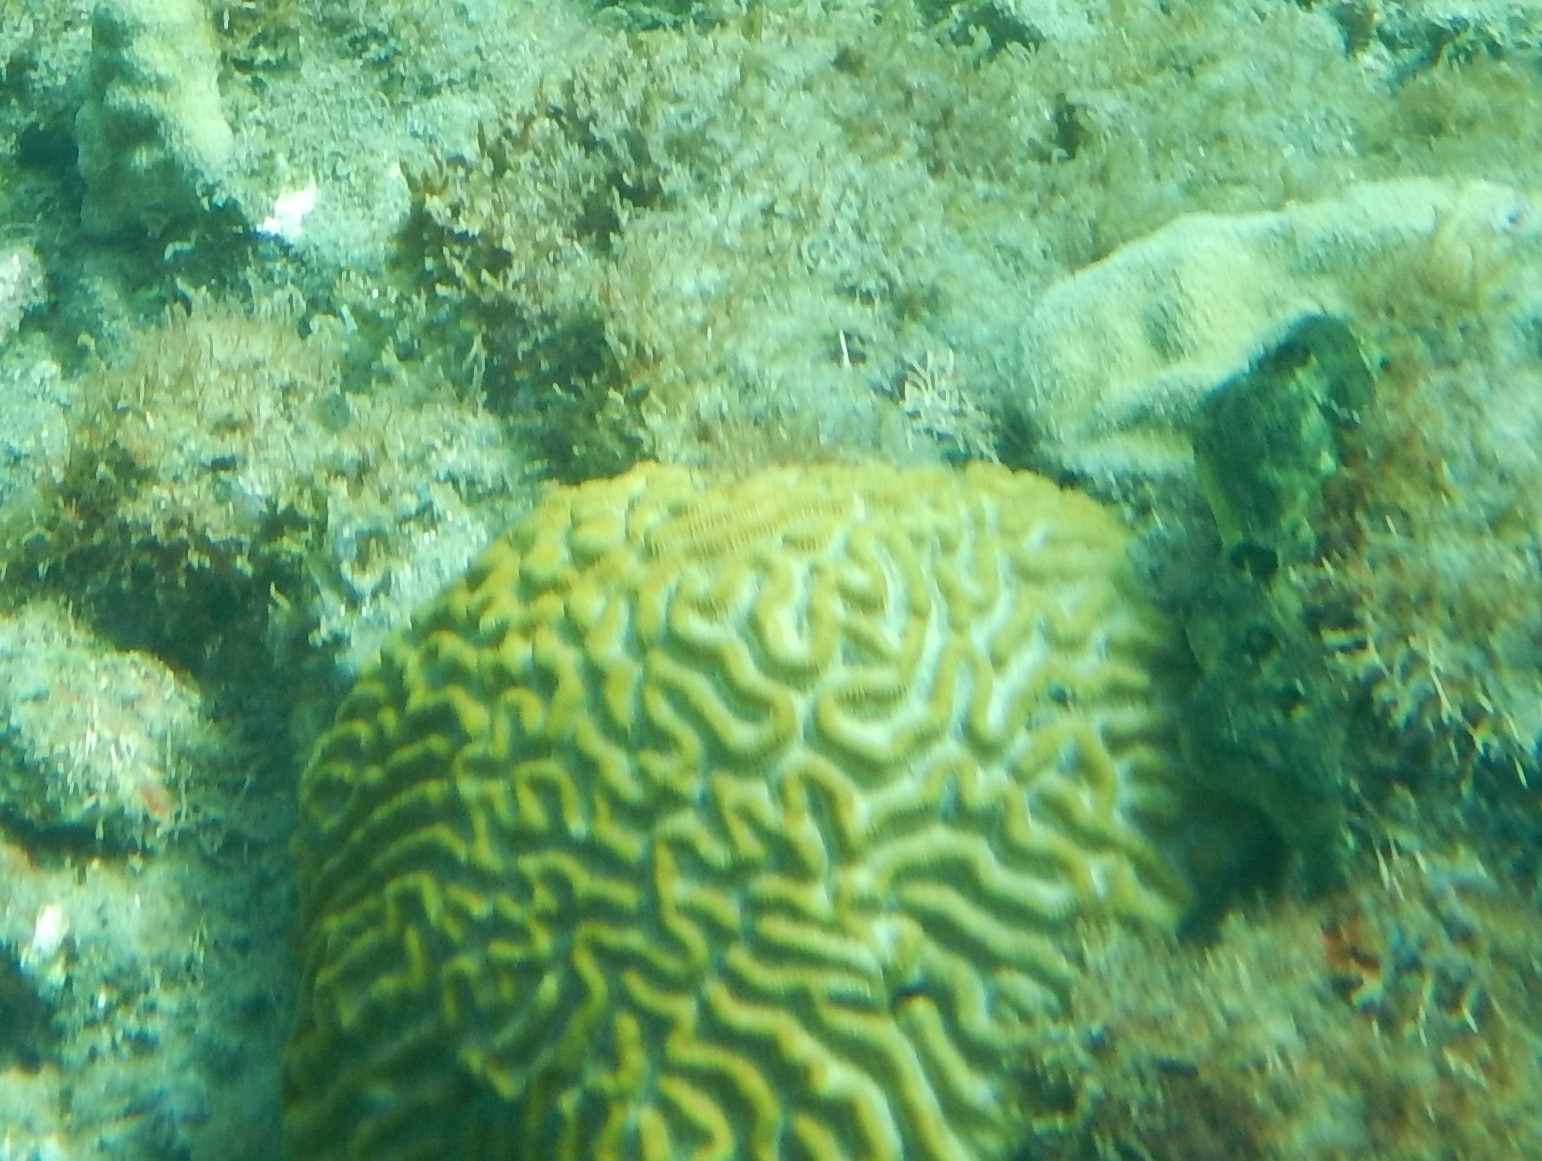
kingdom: Animalia
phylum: Cnidaria
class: Anthozoa
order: Scleractinia
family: Faviidae
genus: Pseudodiploria
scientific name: Pseudodiploria strigosa
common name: Symmetrical brain coral
